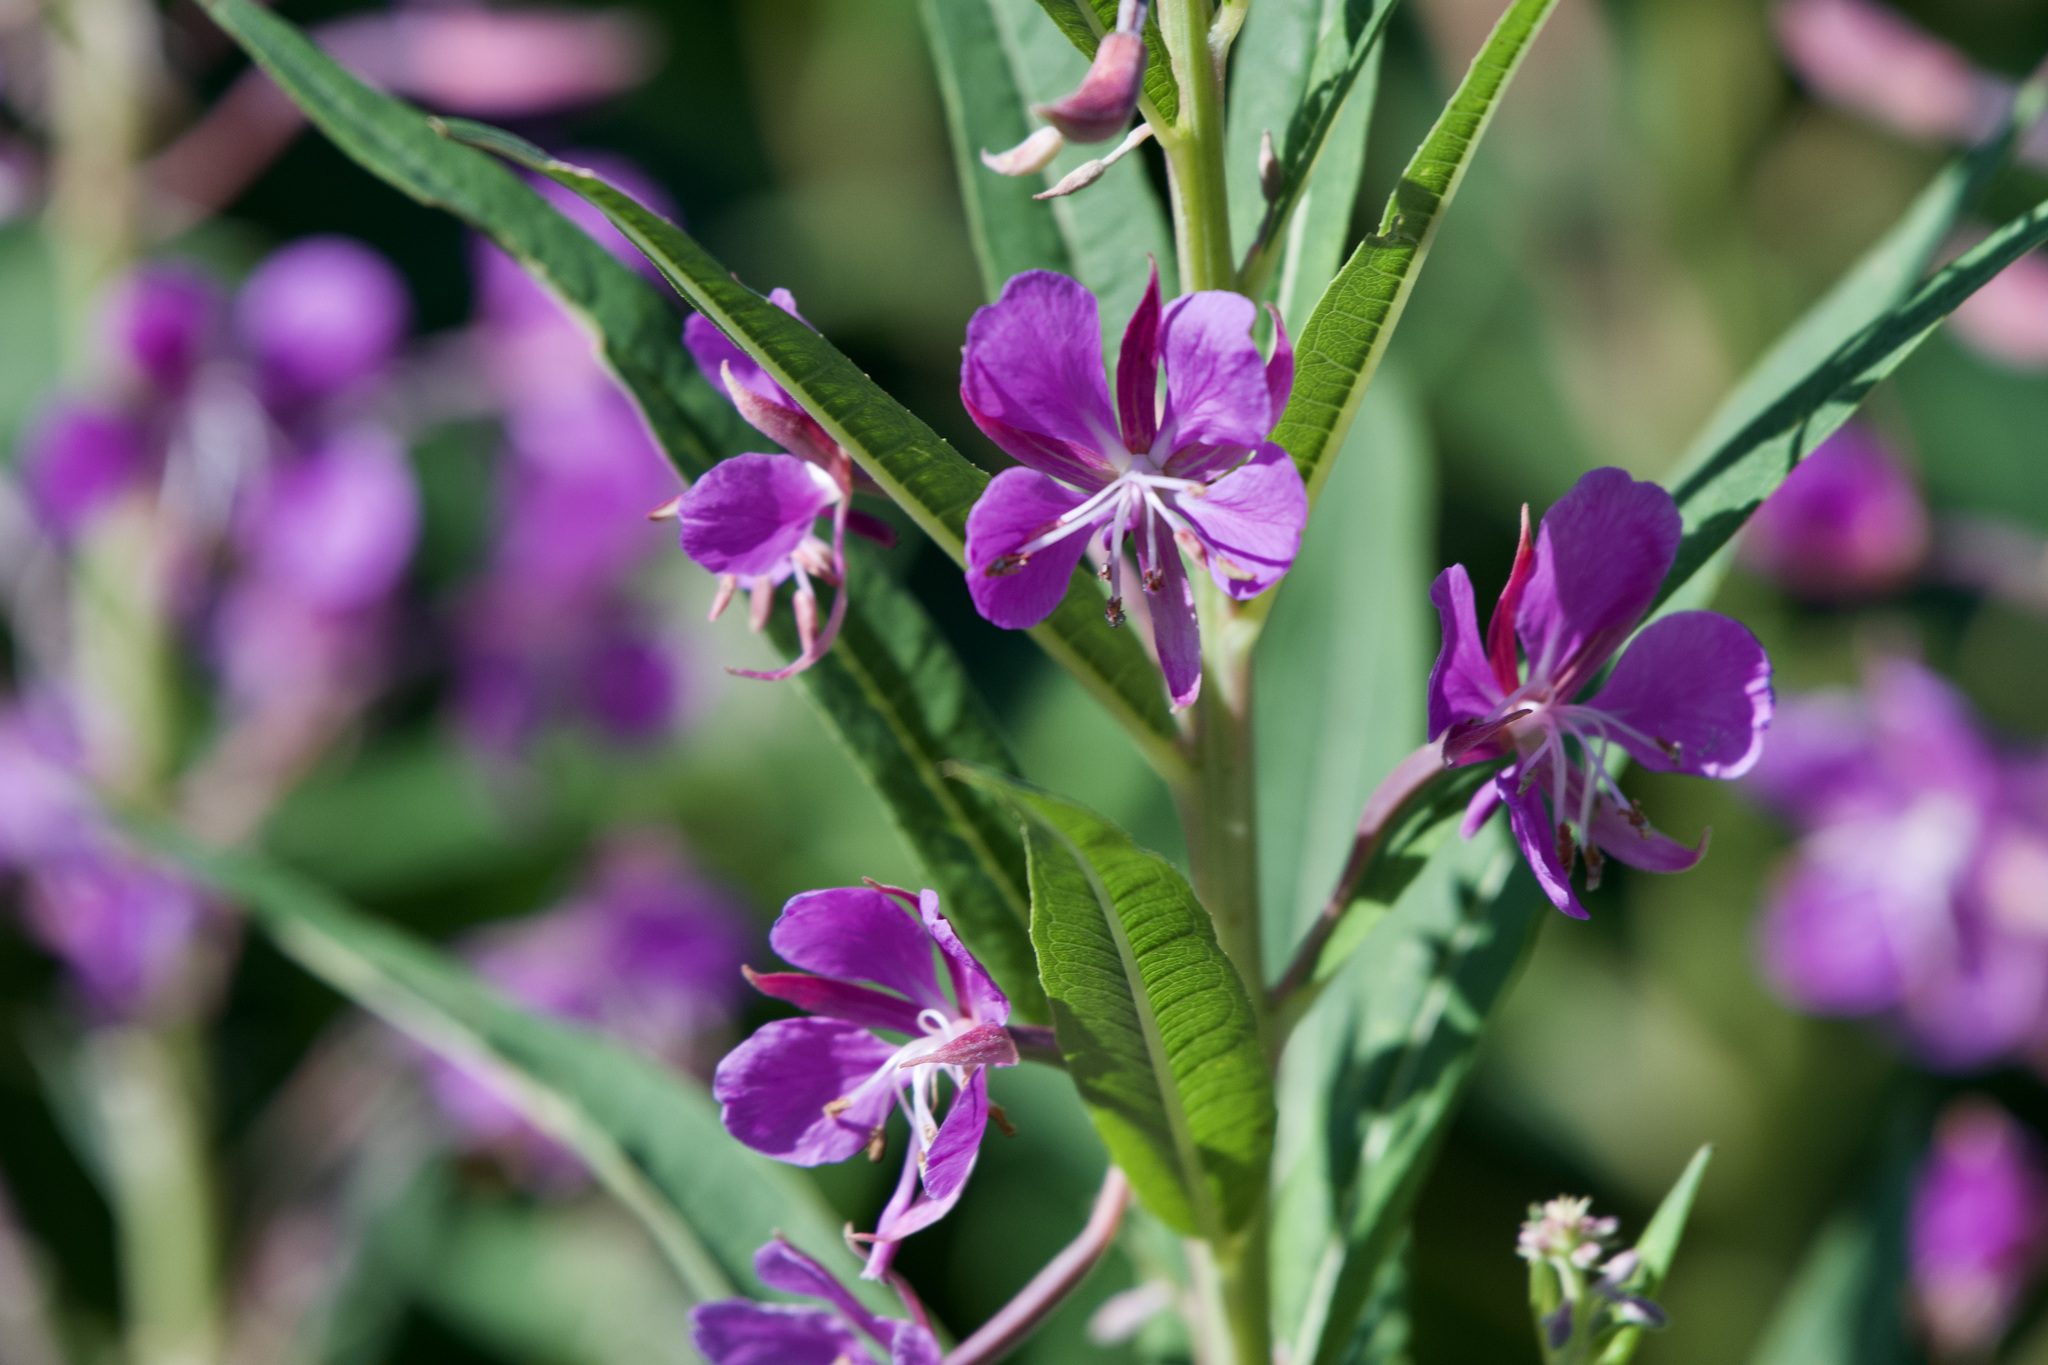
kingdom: Plantae
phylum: Tracheophyta
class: Magnoliopsida
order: Myrtales
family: Onagraceae
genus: Chamaenerion
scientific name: Chamaenerion angustifolium
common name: Fireweed
